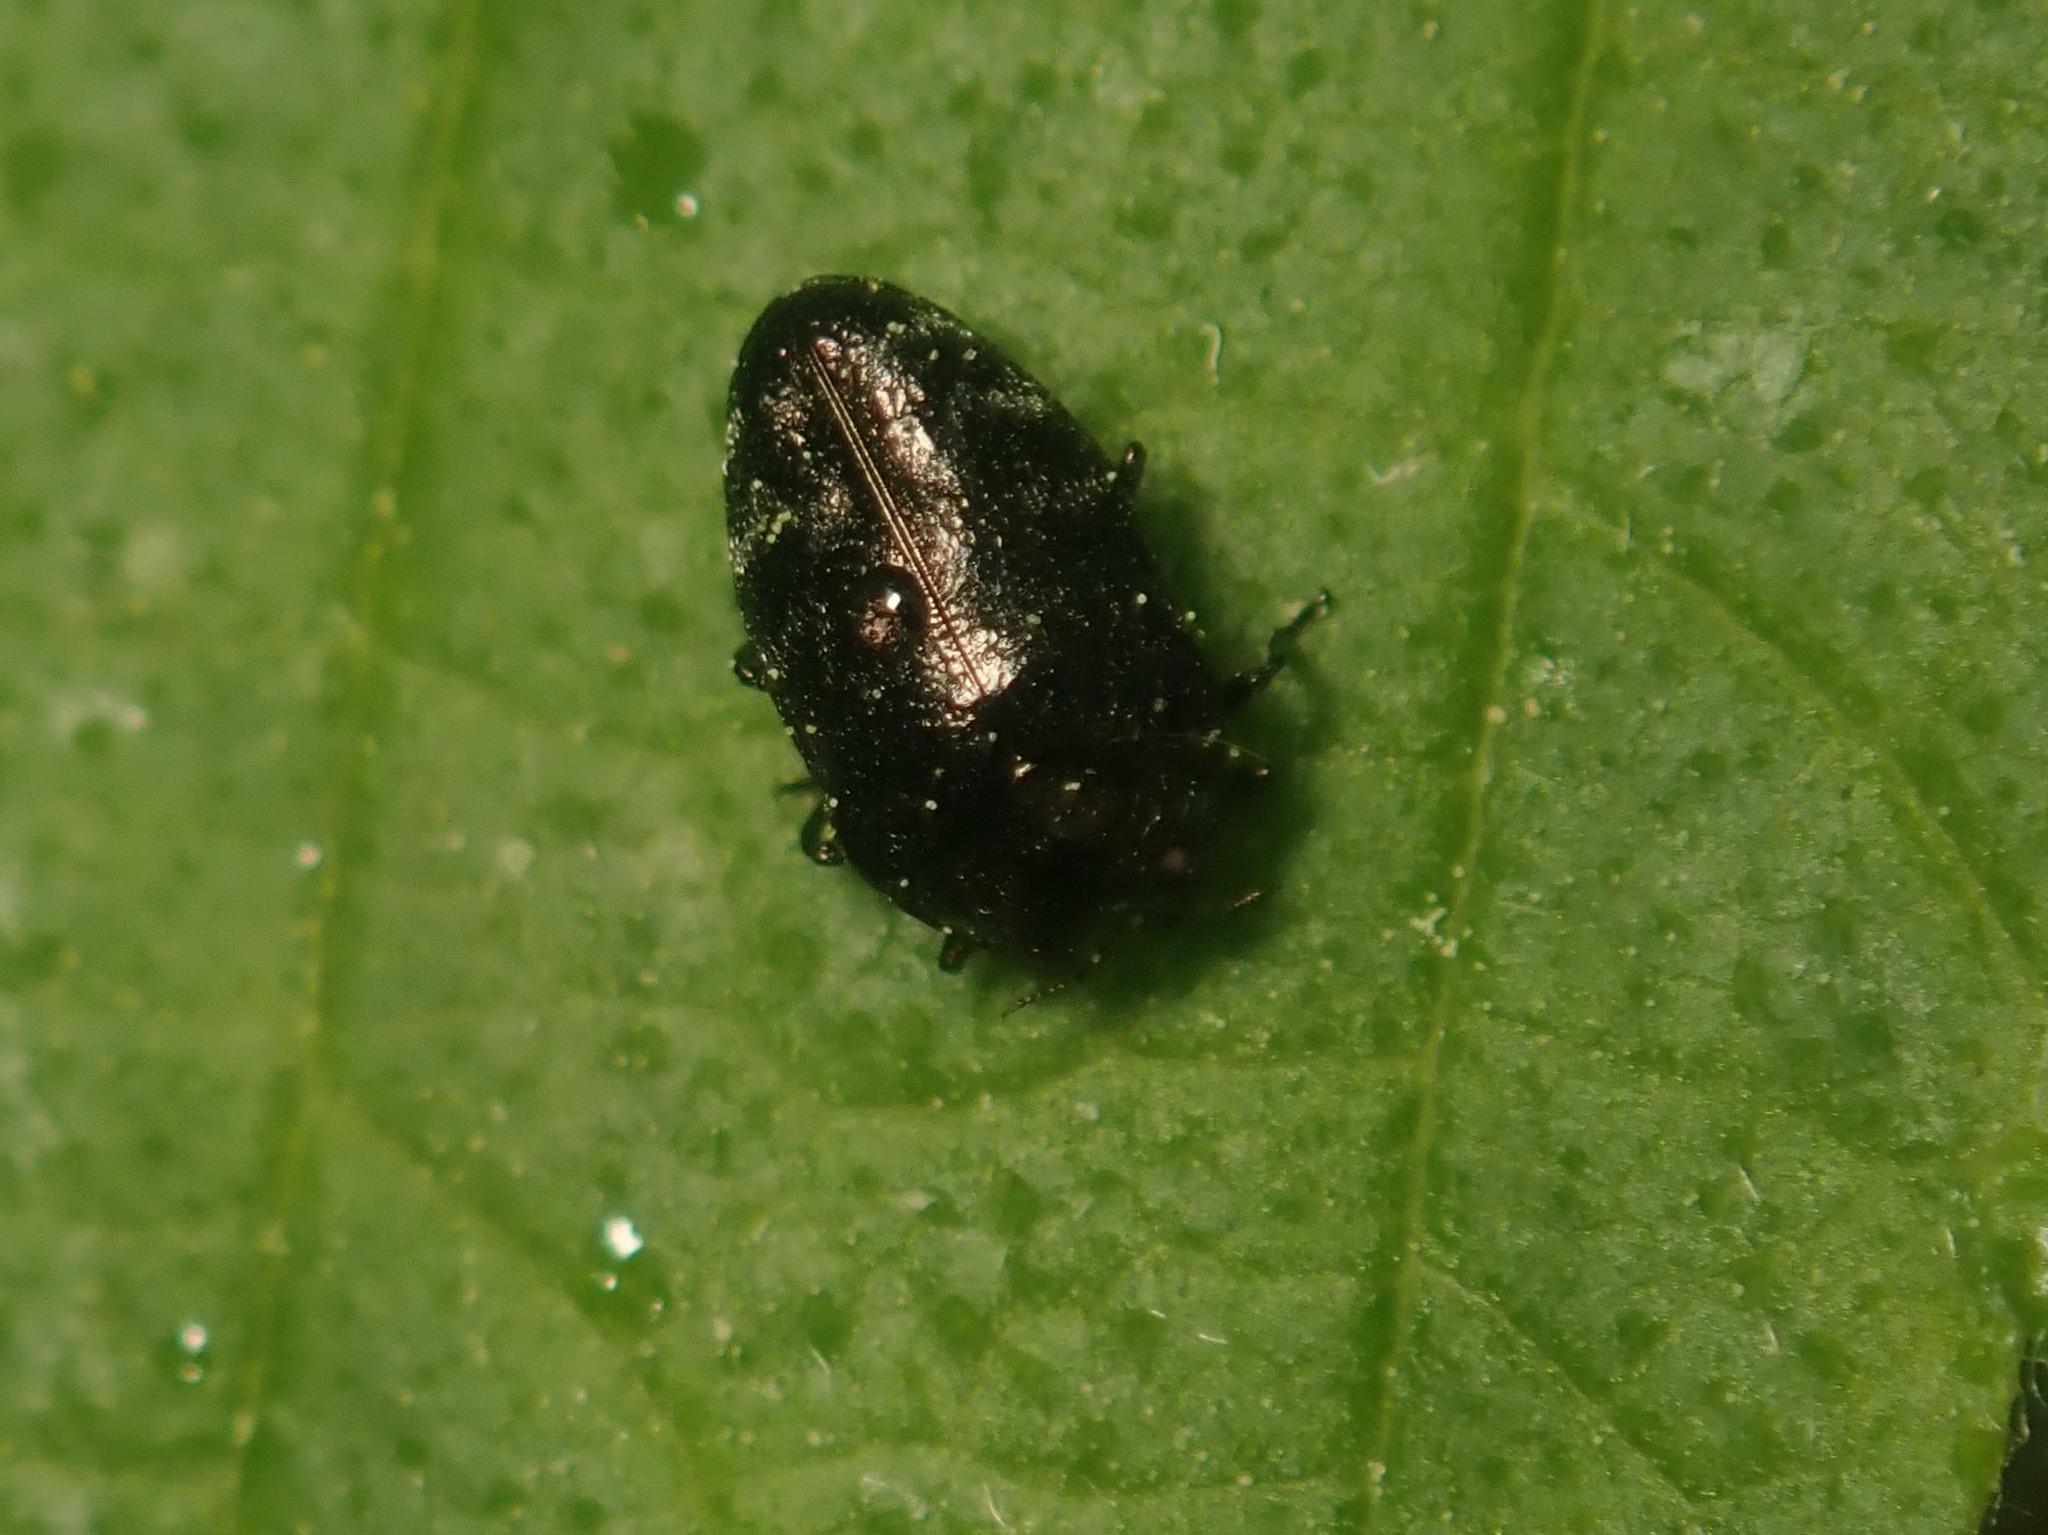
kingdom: Animalia
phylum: Arthropoda
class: Insecta
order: Coleoptera
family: Buprestidae
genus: Trachys
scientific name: Trachys minutus
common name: Metallic wood-boring beetle
